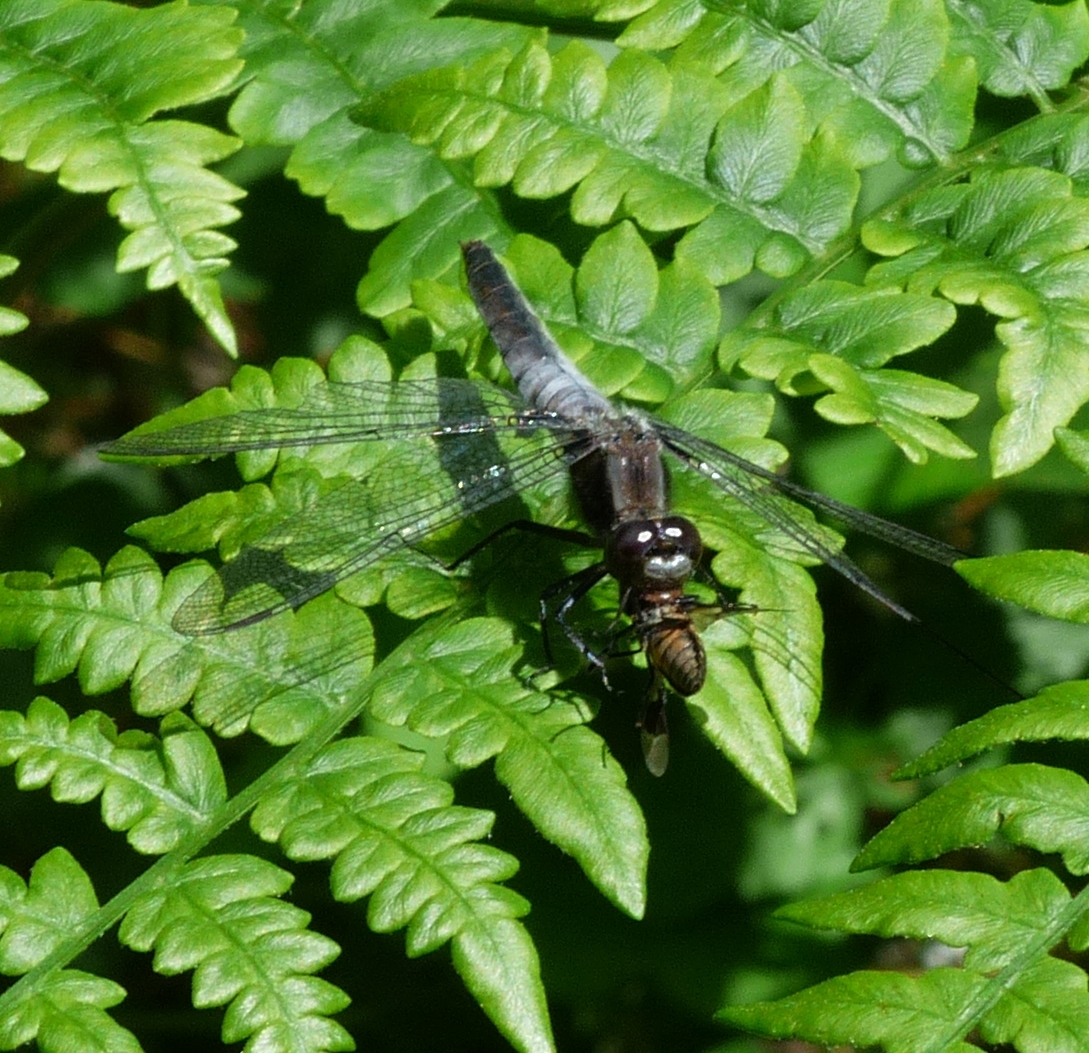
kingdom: Animalia
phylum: Arthropoda
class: Insecta
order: Odonata
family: Libellulidae
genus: Ladona
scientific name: Ladona julia
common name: Chalk-fronted corporal
